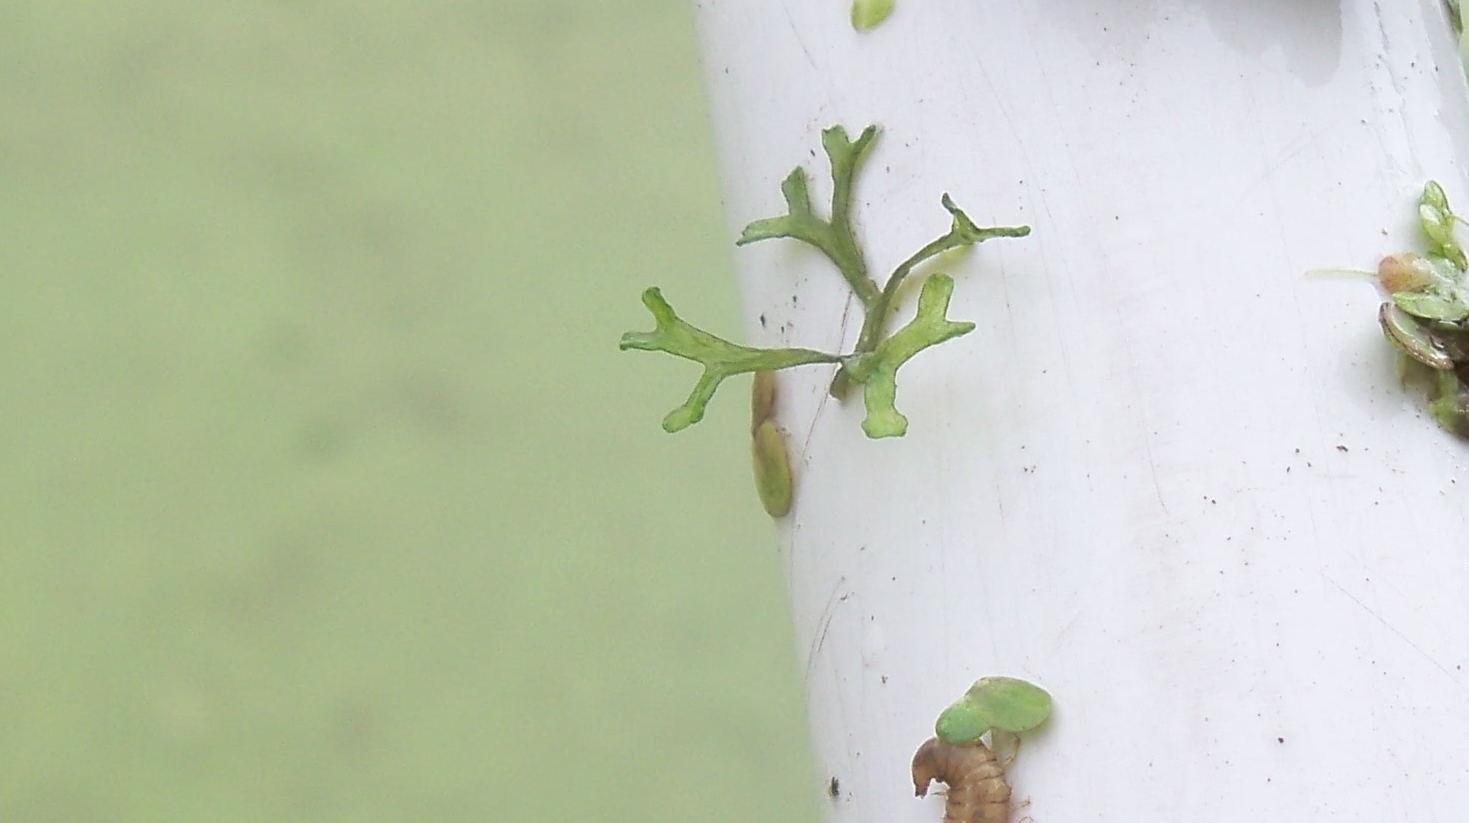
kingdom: Plantae
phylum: Marchantiophyta
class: Marchantiopsida
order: Marchantiales
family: Ricciaceae
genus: Riccia
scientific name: Riccia fluitans
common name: Floating crystalwort
